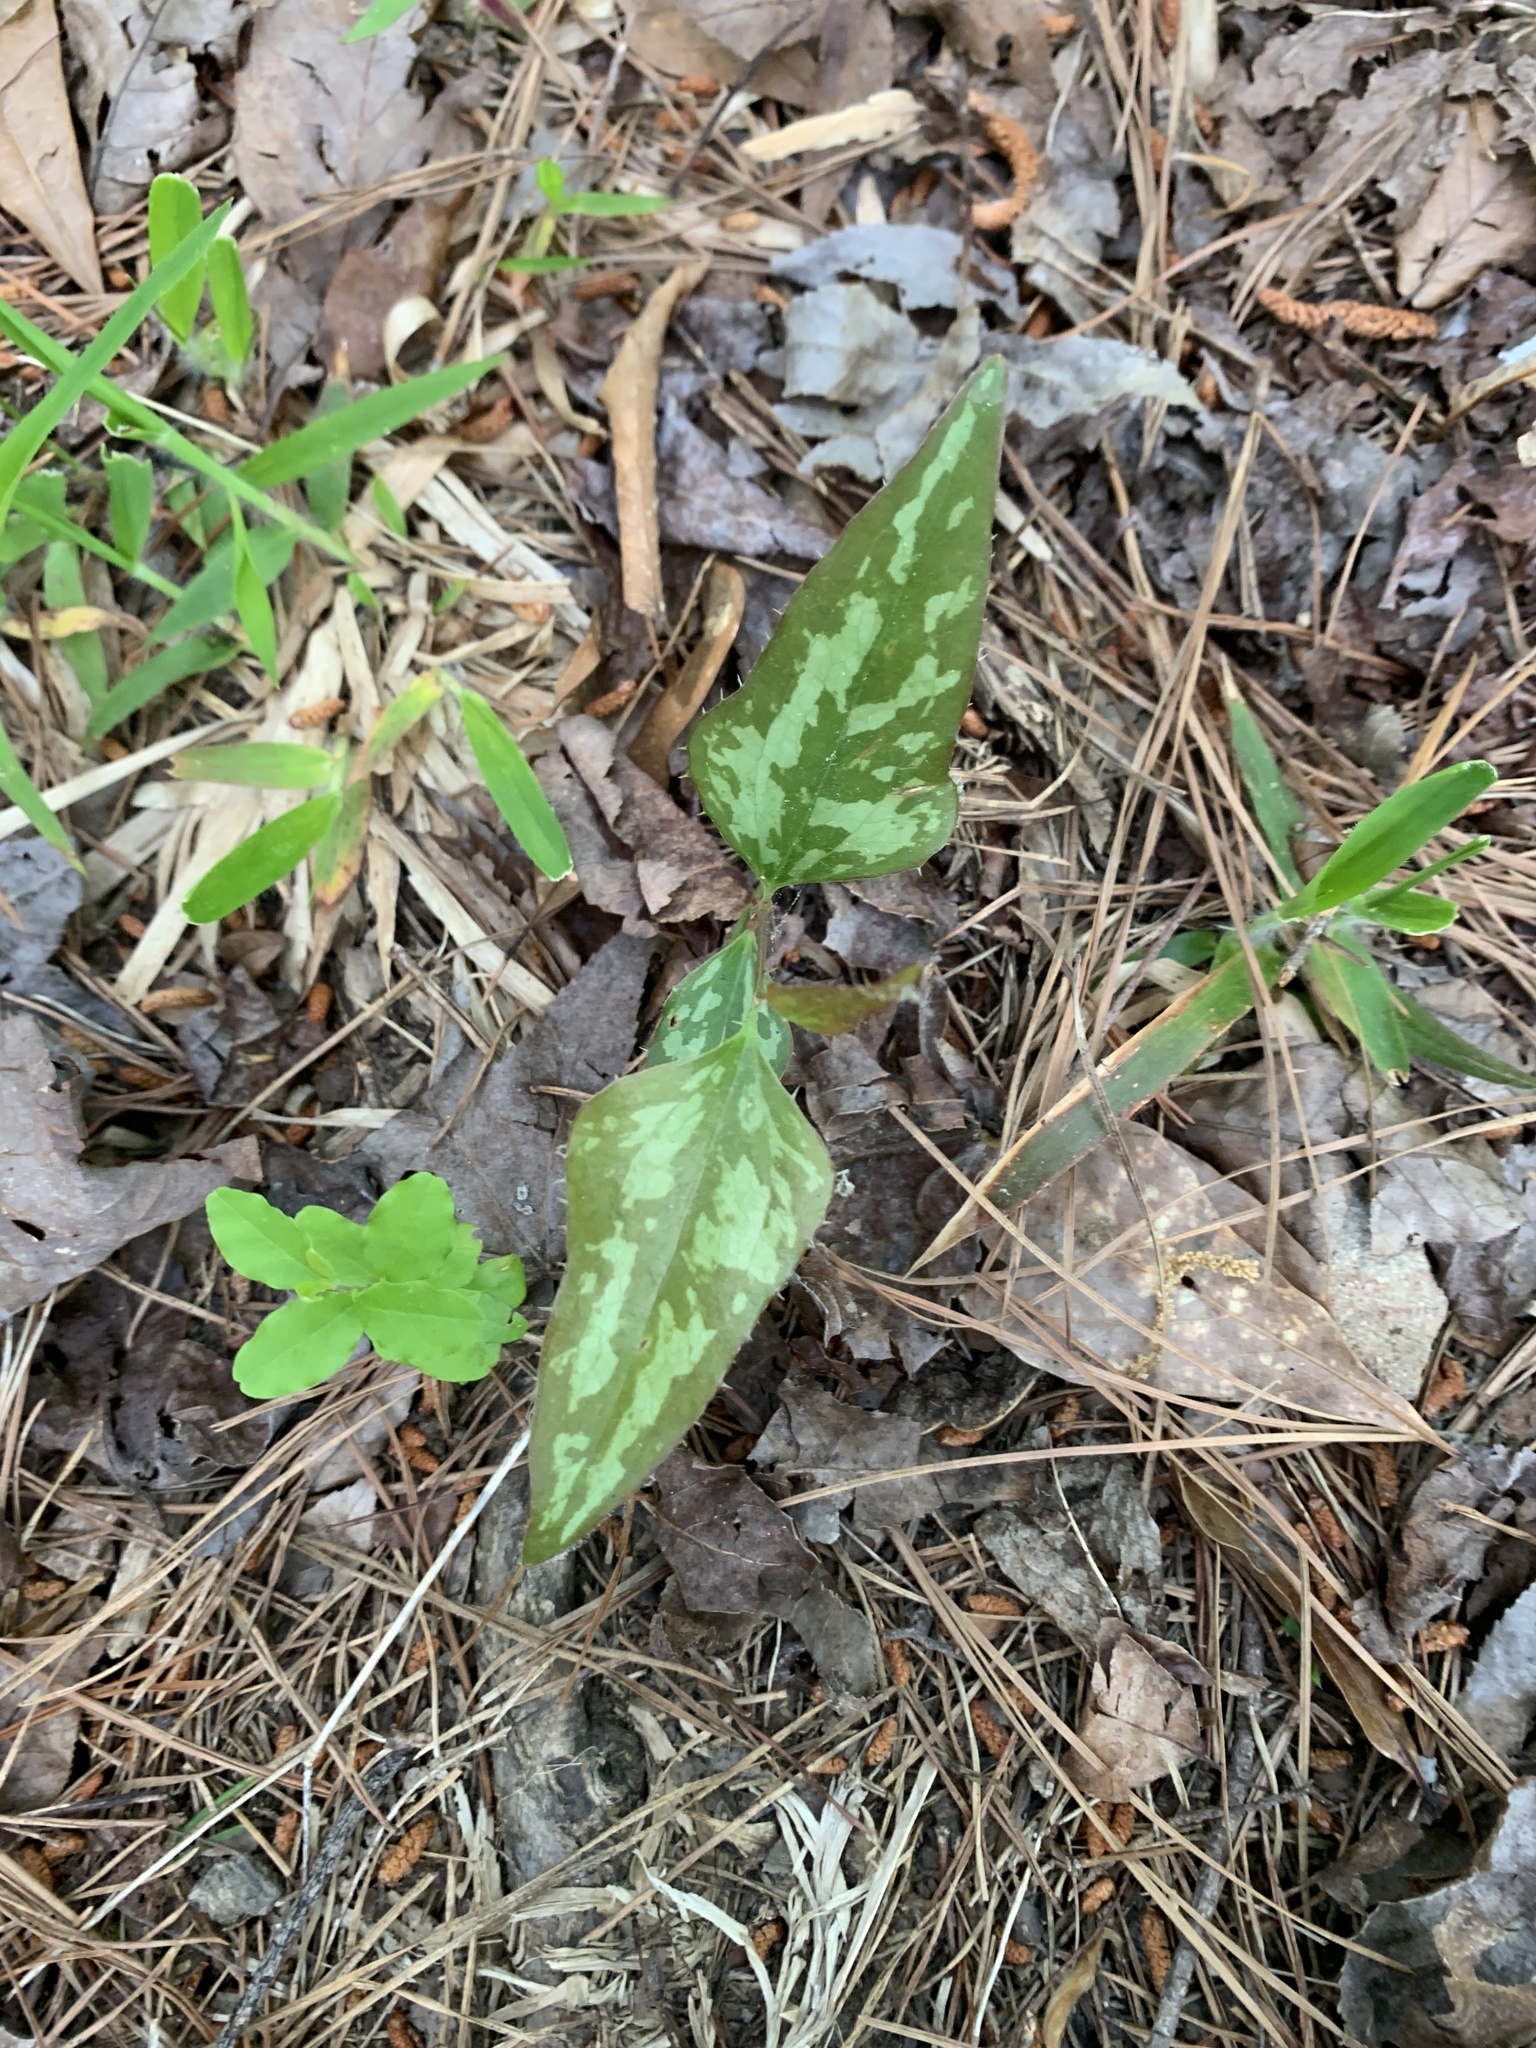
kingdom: Plantae
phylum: Tracheophyta
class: Liliopsida
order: Liliales
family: Smilacaceae
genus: Smilax
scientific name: Smilax bona-nox
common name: Catbrier
